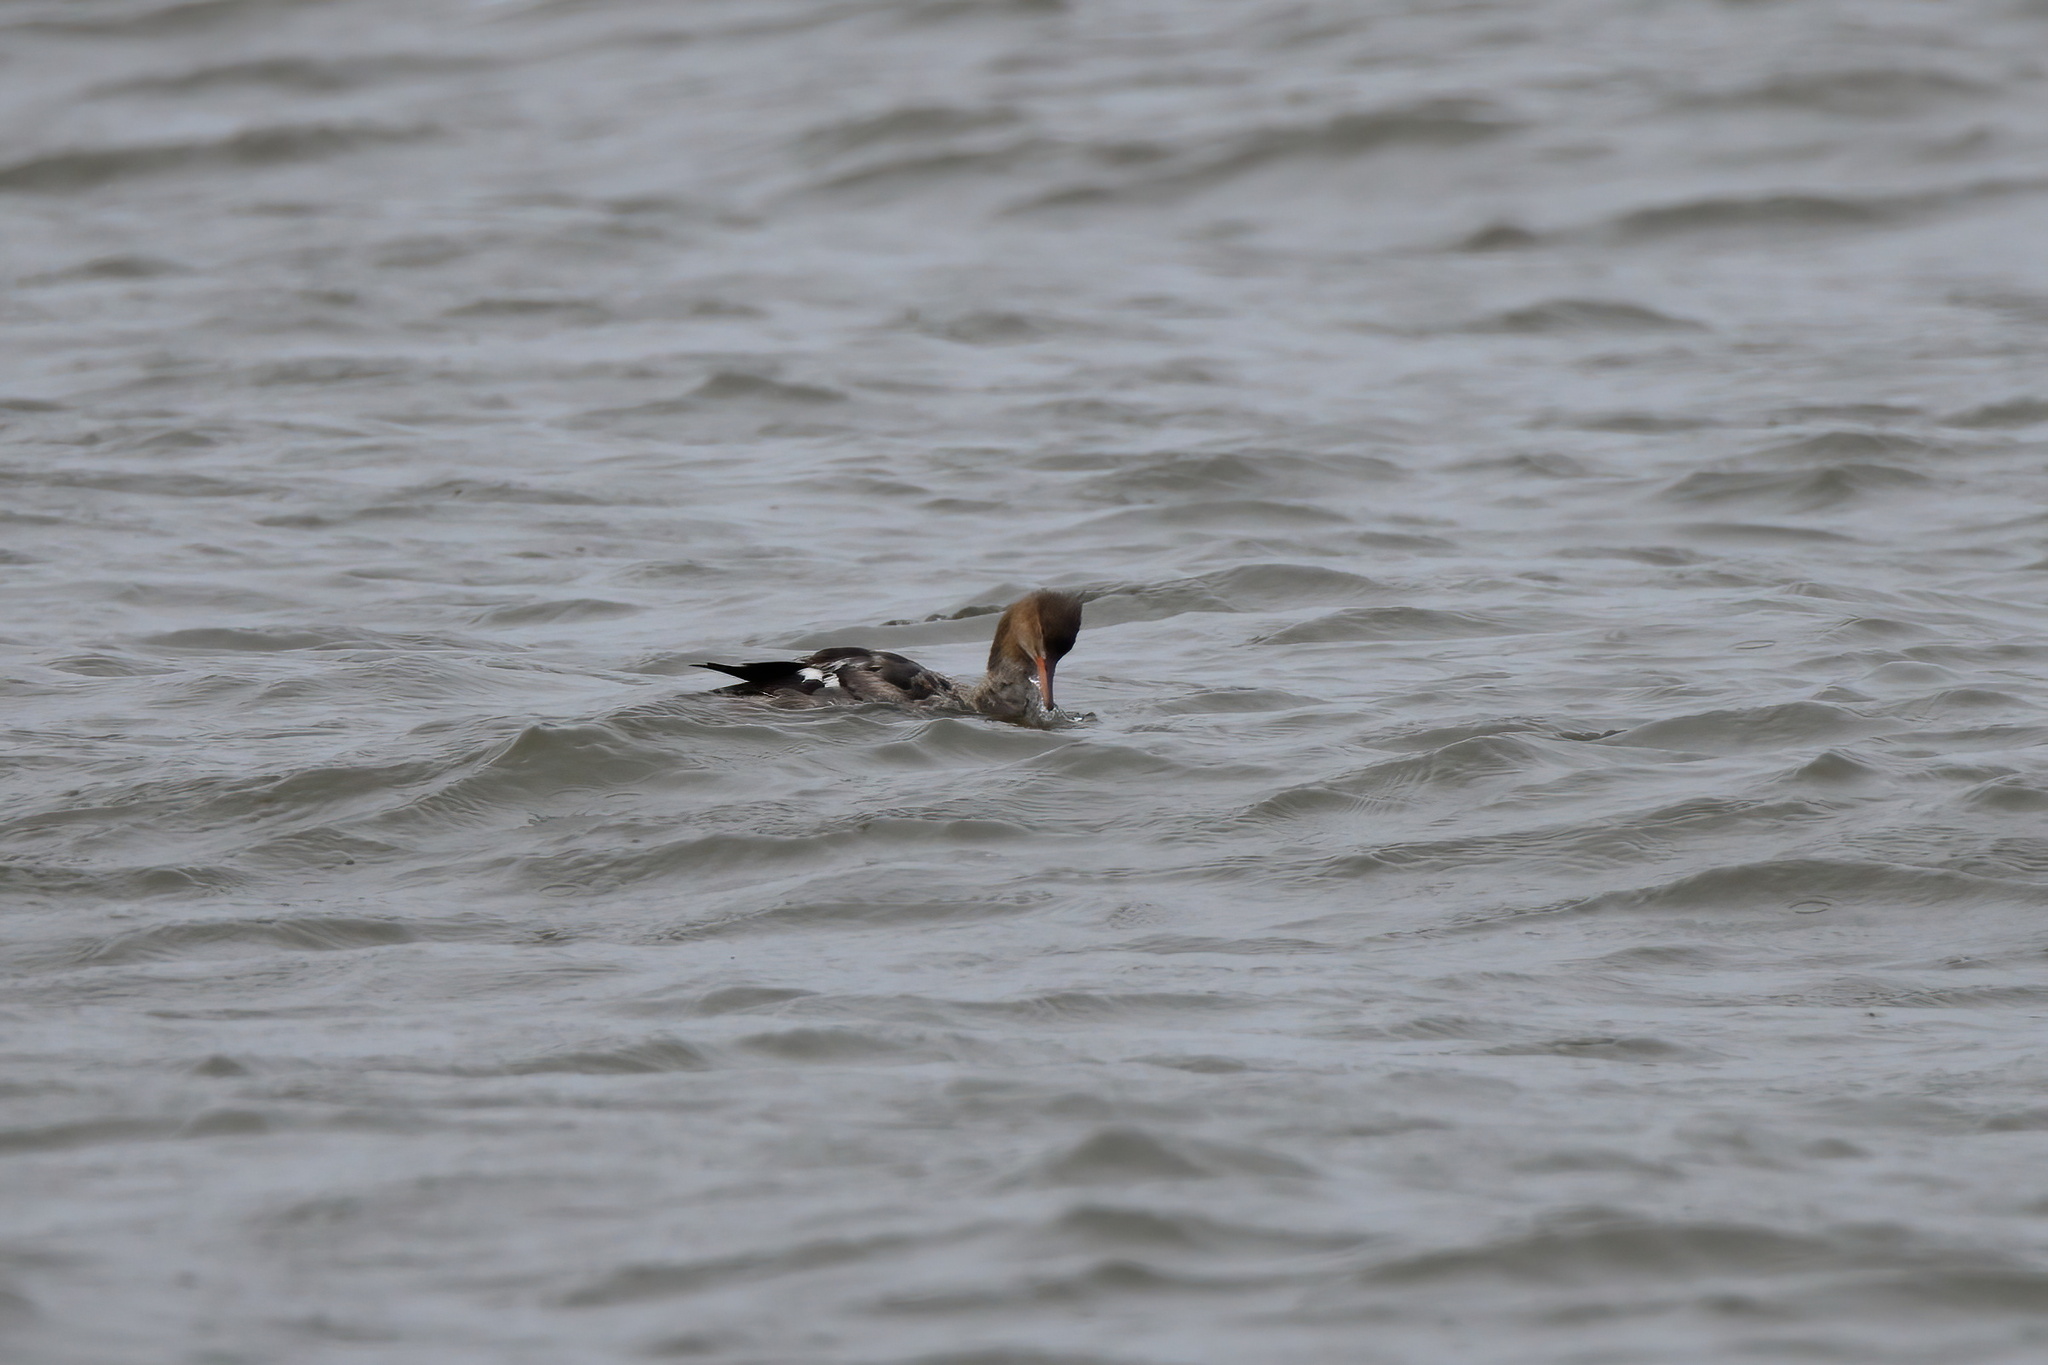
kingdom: Animalia
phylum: Chordata
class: Aves
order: Anseriformes
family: Anatidae
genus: Mergus
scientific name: Mergus serrator
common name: Red-breasted merganser
